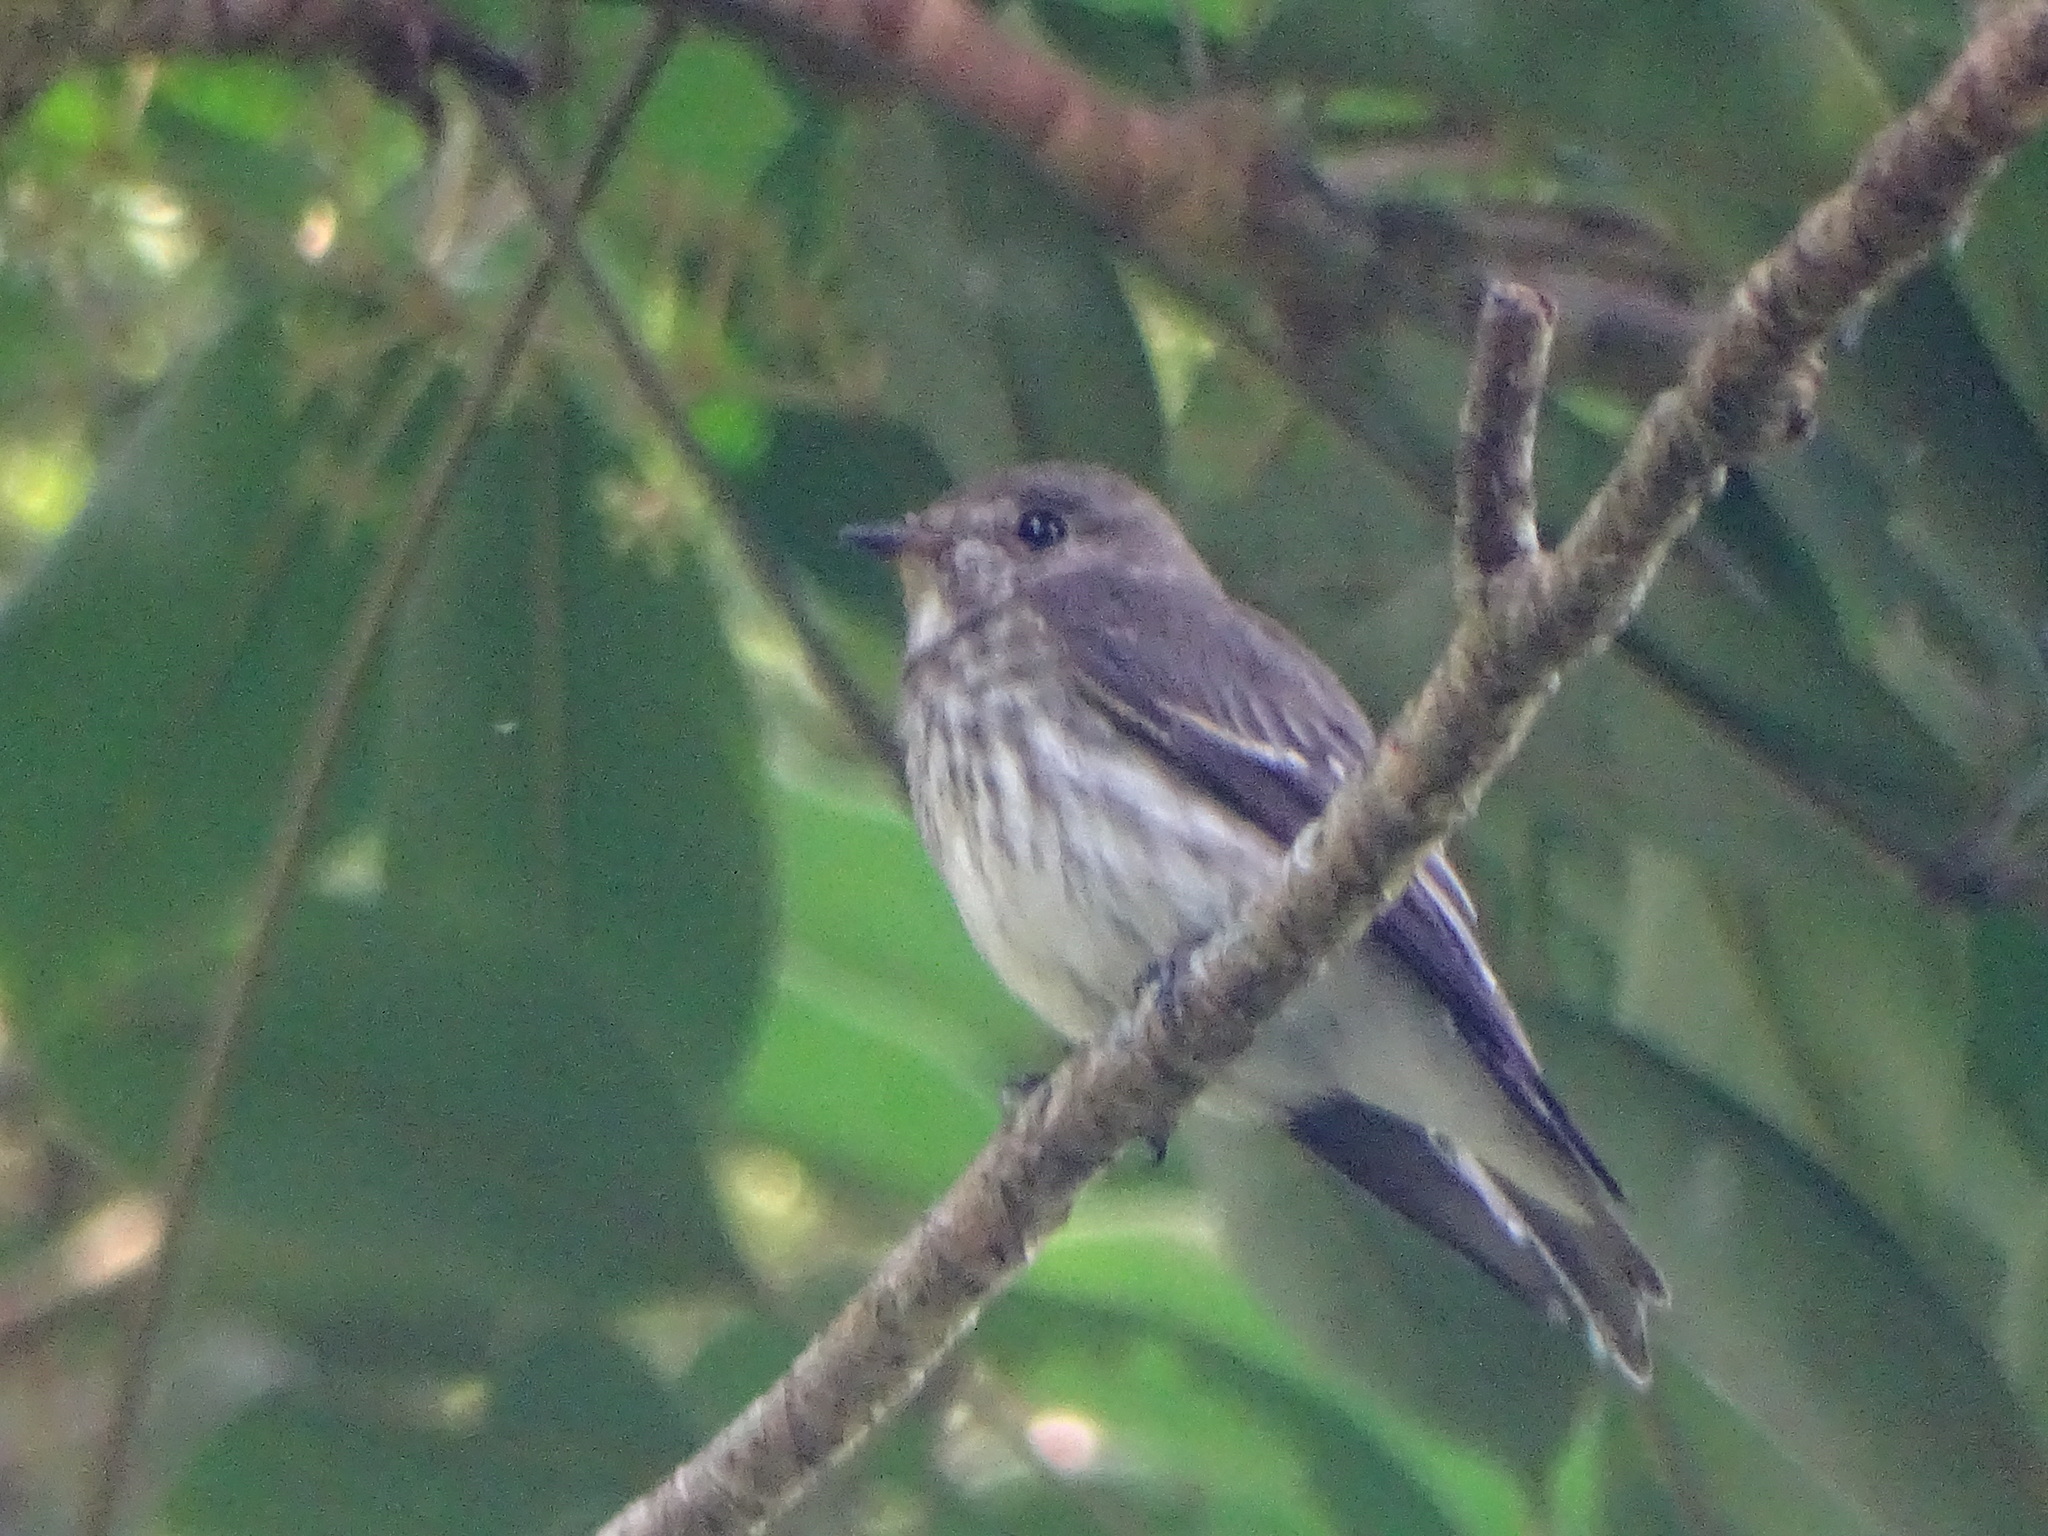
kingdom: Animalia
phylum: Chordata
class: Aves
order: Passeriformes
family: Muscicapidae
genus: Muscicapa
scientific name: Muscicapa griseisticta
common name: Gray-streaked flycatcher
